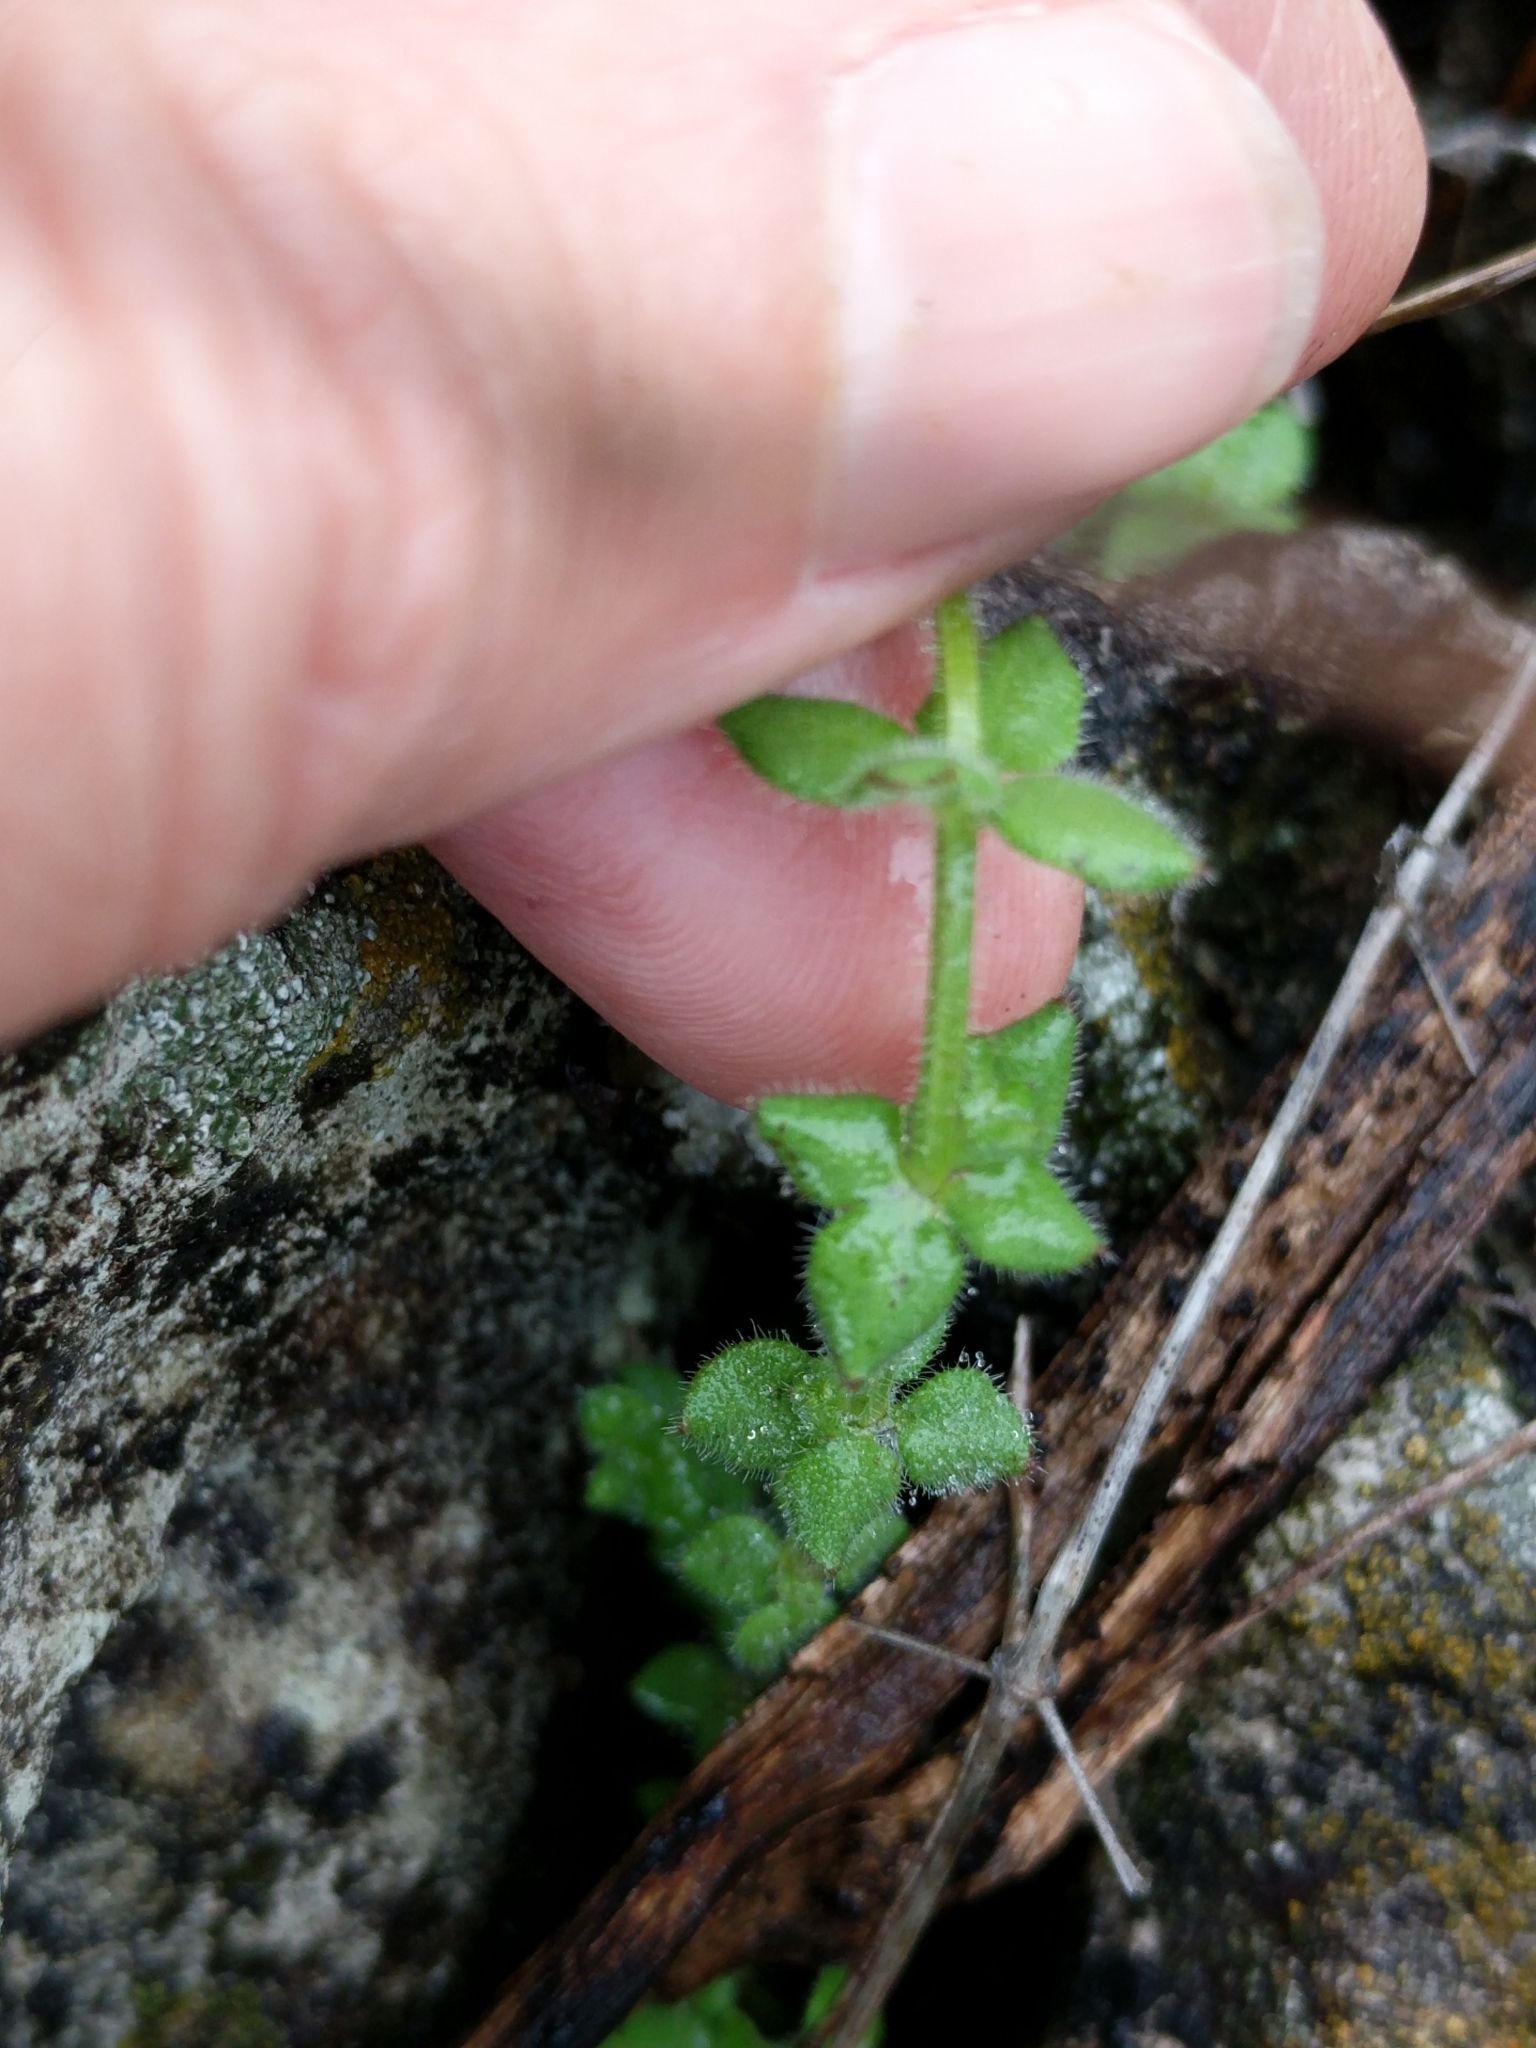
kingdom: Plantae
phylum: Tracheophyta
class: Magnoliopsida
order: Gentianales
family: Rubiaceae
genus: Galium
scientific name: Galium texense
